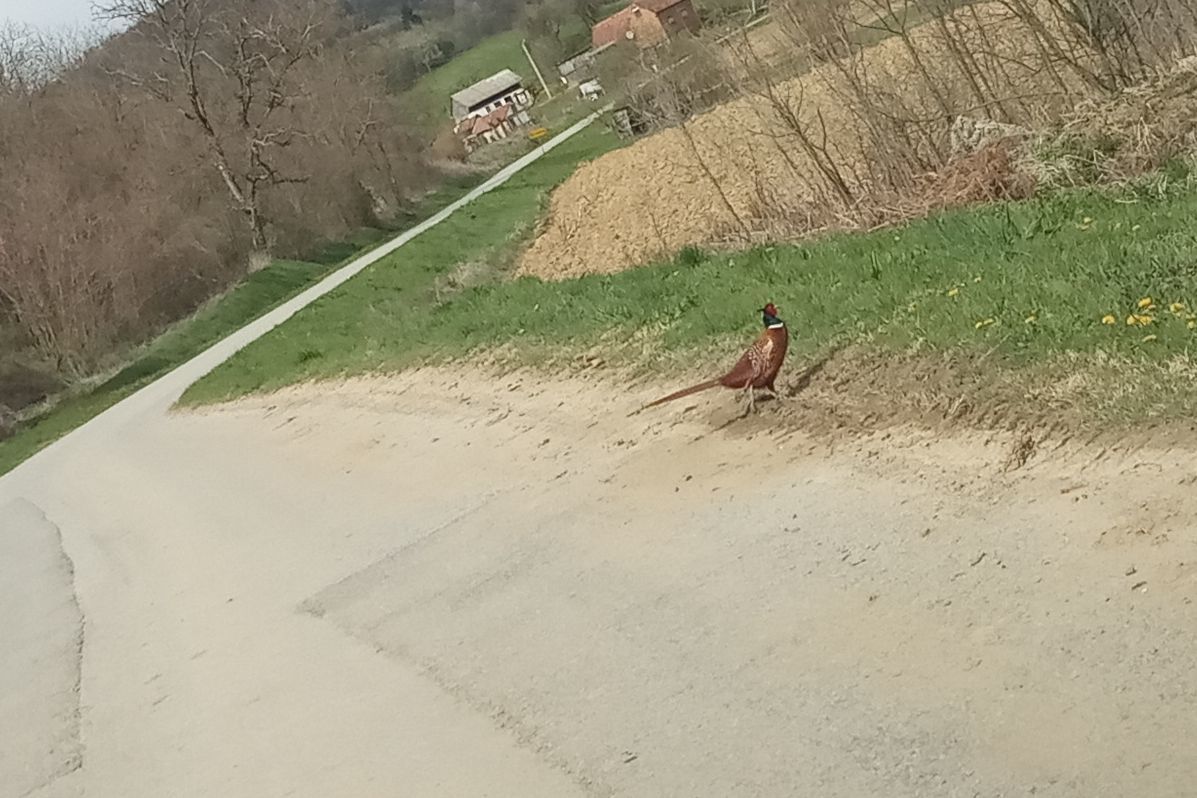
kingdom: Animalia
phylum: Chordata
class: Aves
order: Galliformes
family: Phasianidae
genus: Phasianus
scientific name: Phasianus colchicus
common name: Common pheasant
